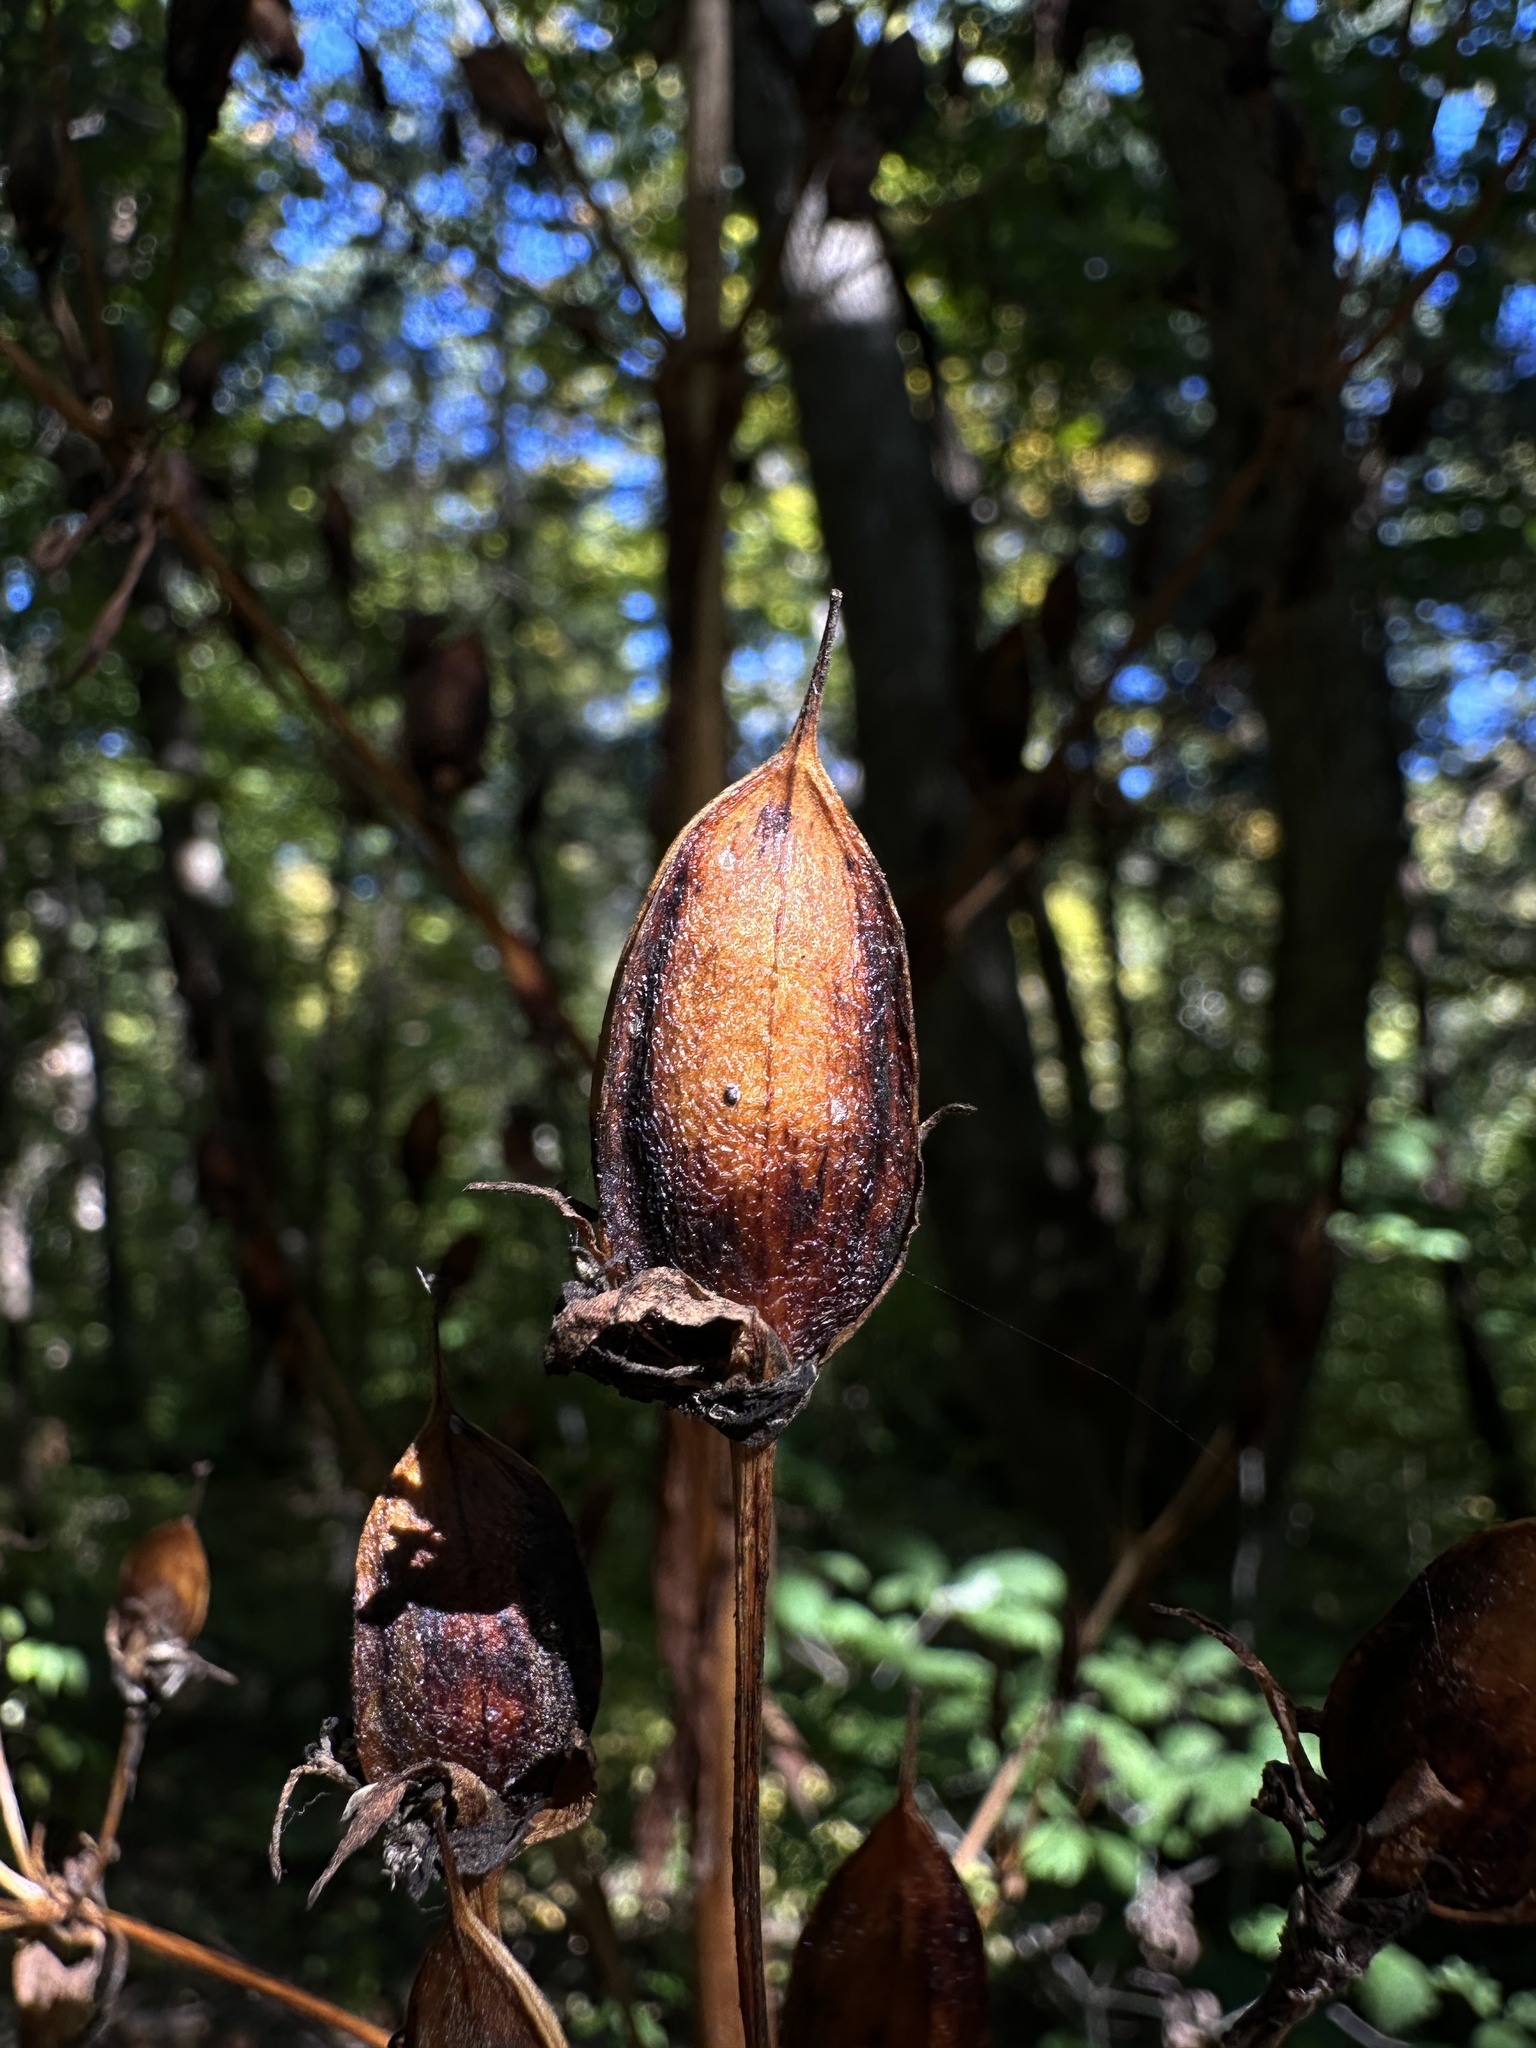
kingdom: Plantae
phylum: Tracheophyta
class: Magnoliopsida
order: Gentianales
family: Gentianaceae
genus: Frasera
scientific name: Frasera caroliniensis
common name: American columbo
